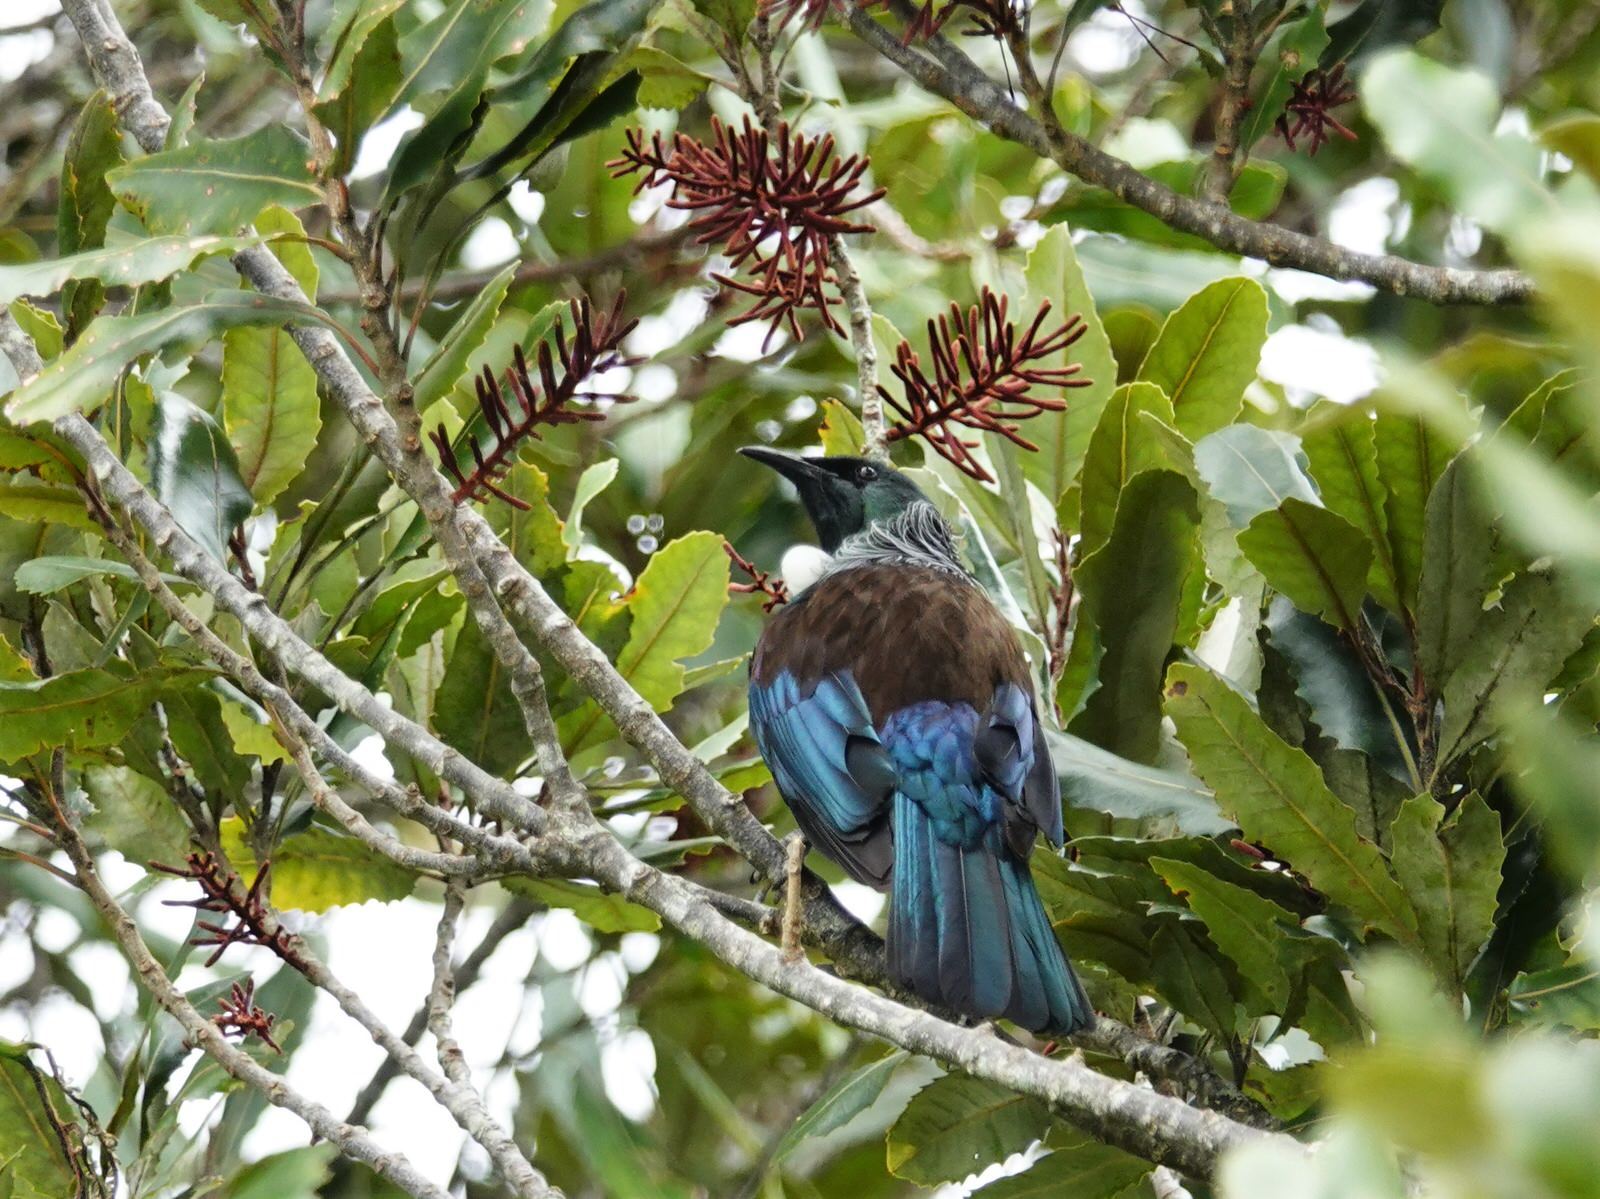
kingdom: Animalia
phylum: Chordata
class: Aves
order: Passeriformes
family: Meliphagidae
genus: Prosthemadera
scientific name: Prosthemadera novaeseelandiae
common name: Tui
